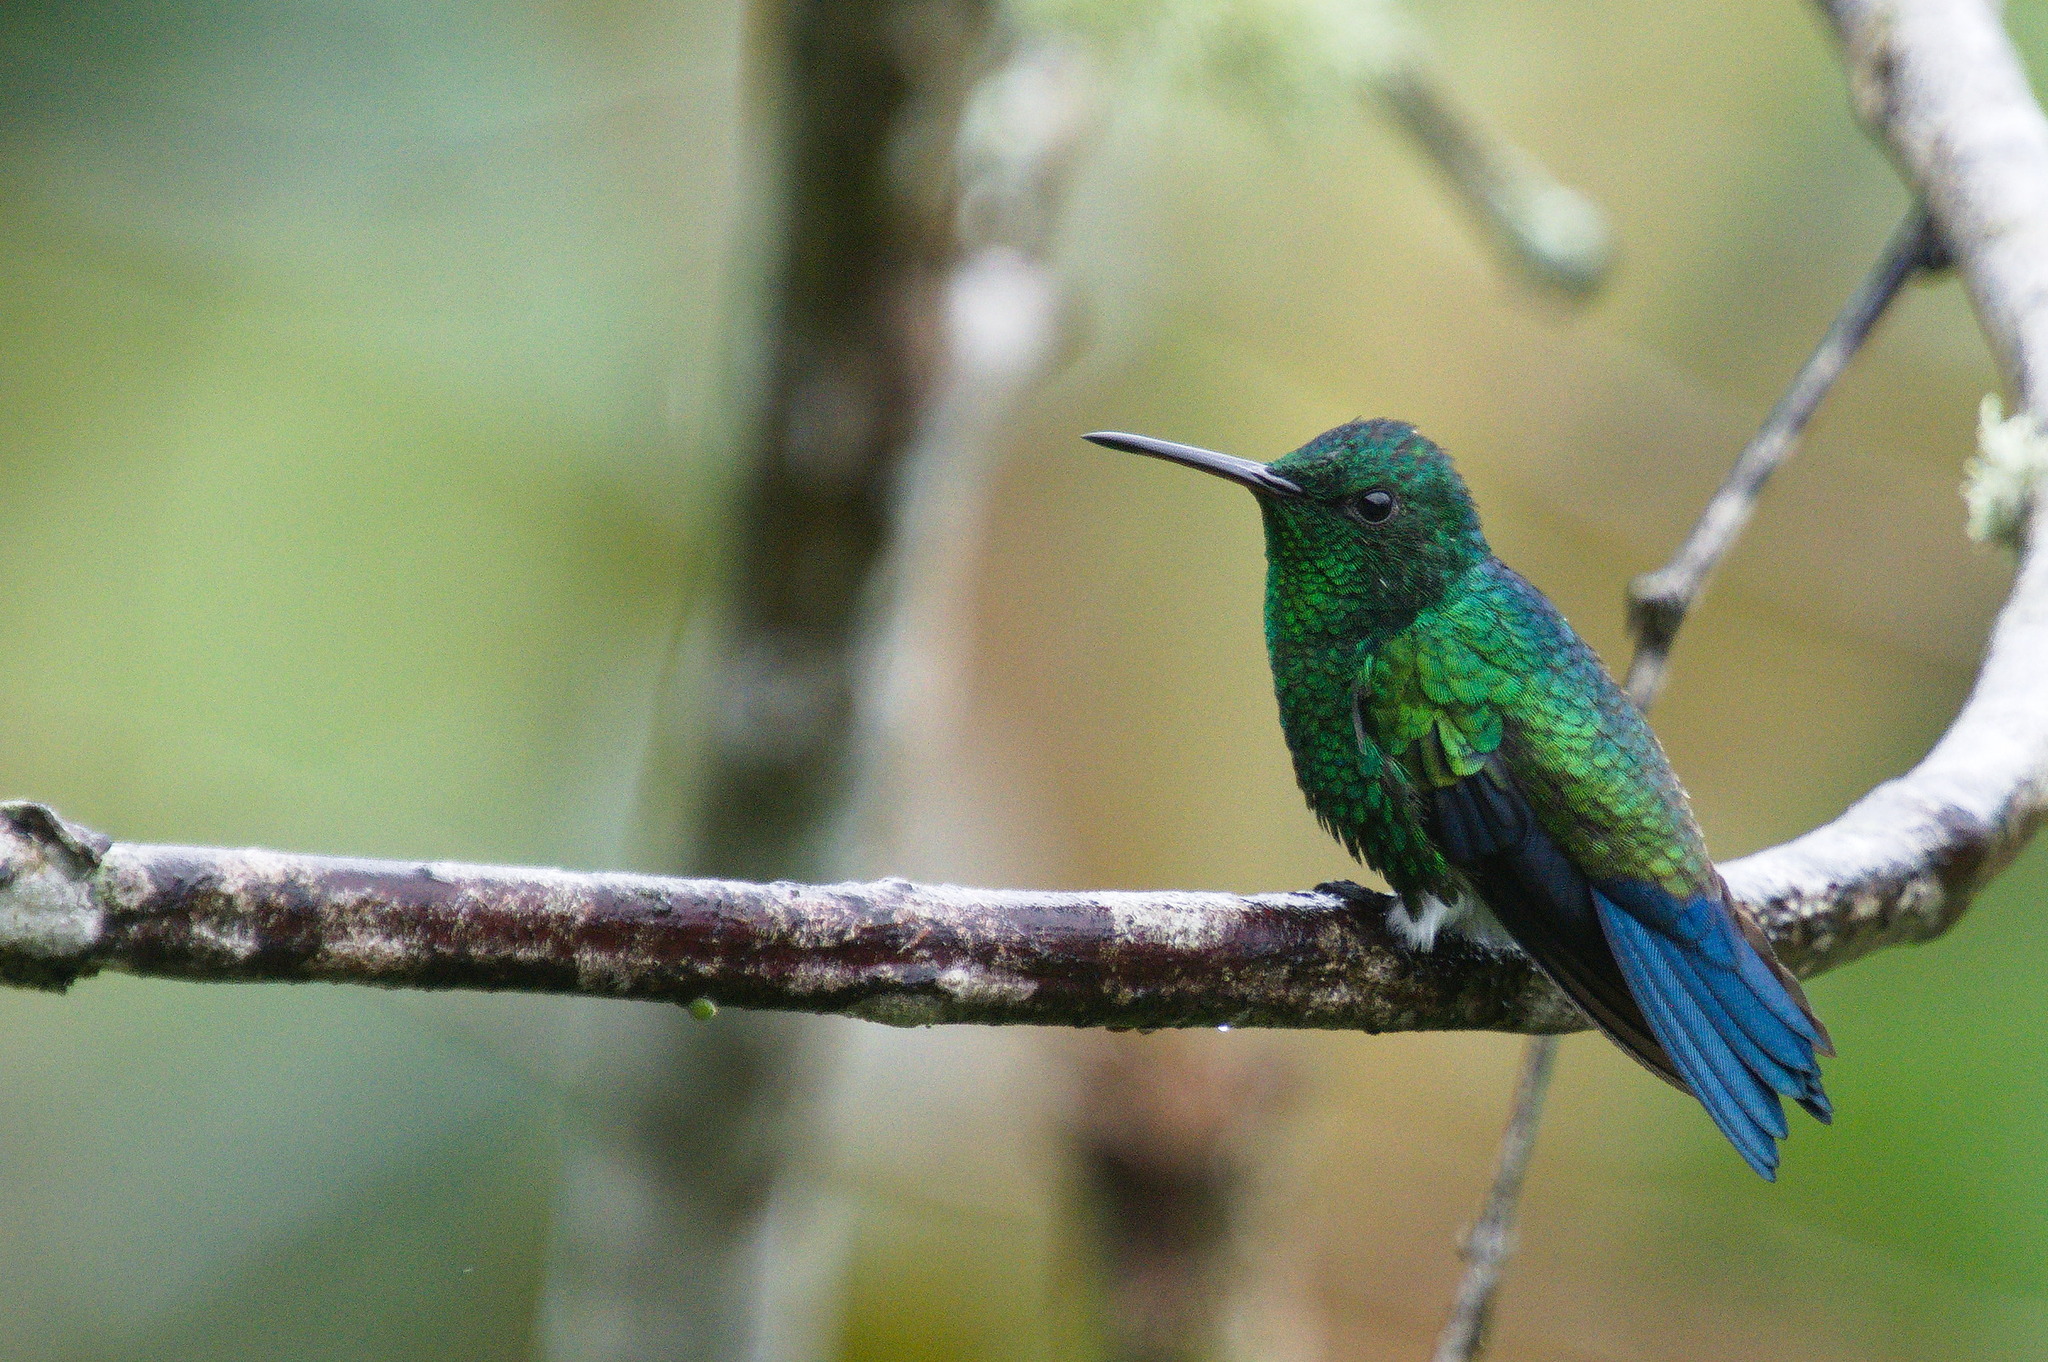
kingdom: Animalia
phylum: Chordata
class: Aves
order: Apodiformes
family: Trochilidae
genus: Saucerottia
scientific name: Saucerottia saucerottei
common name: Steely-vented hummingbird
